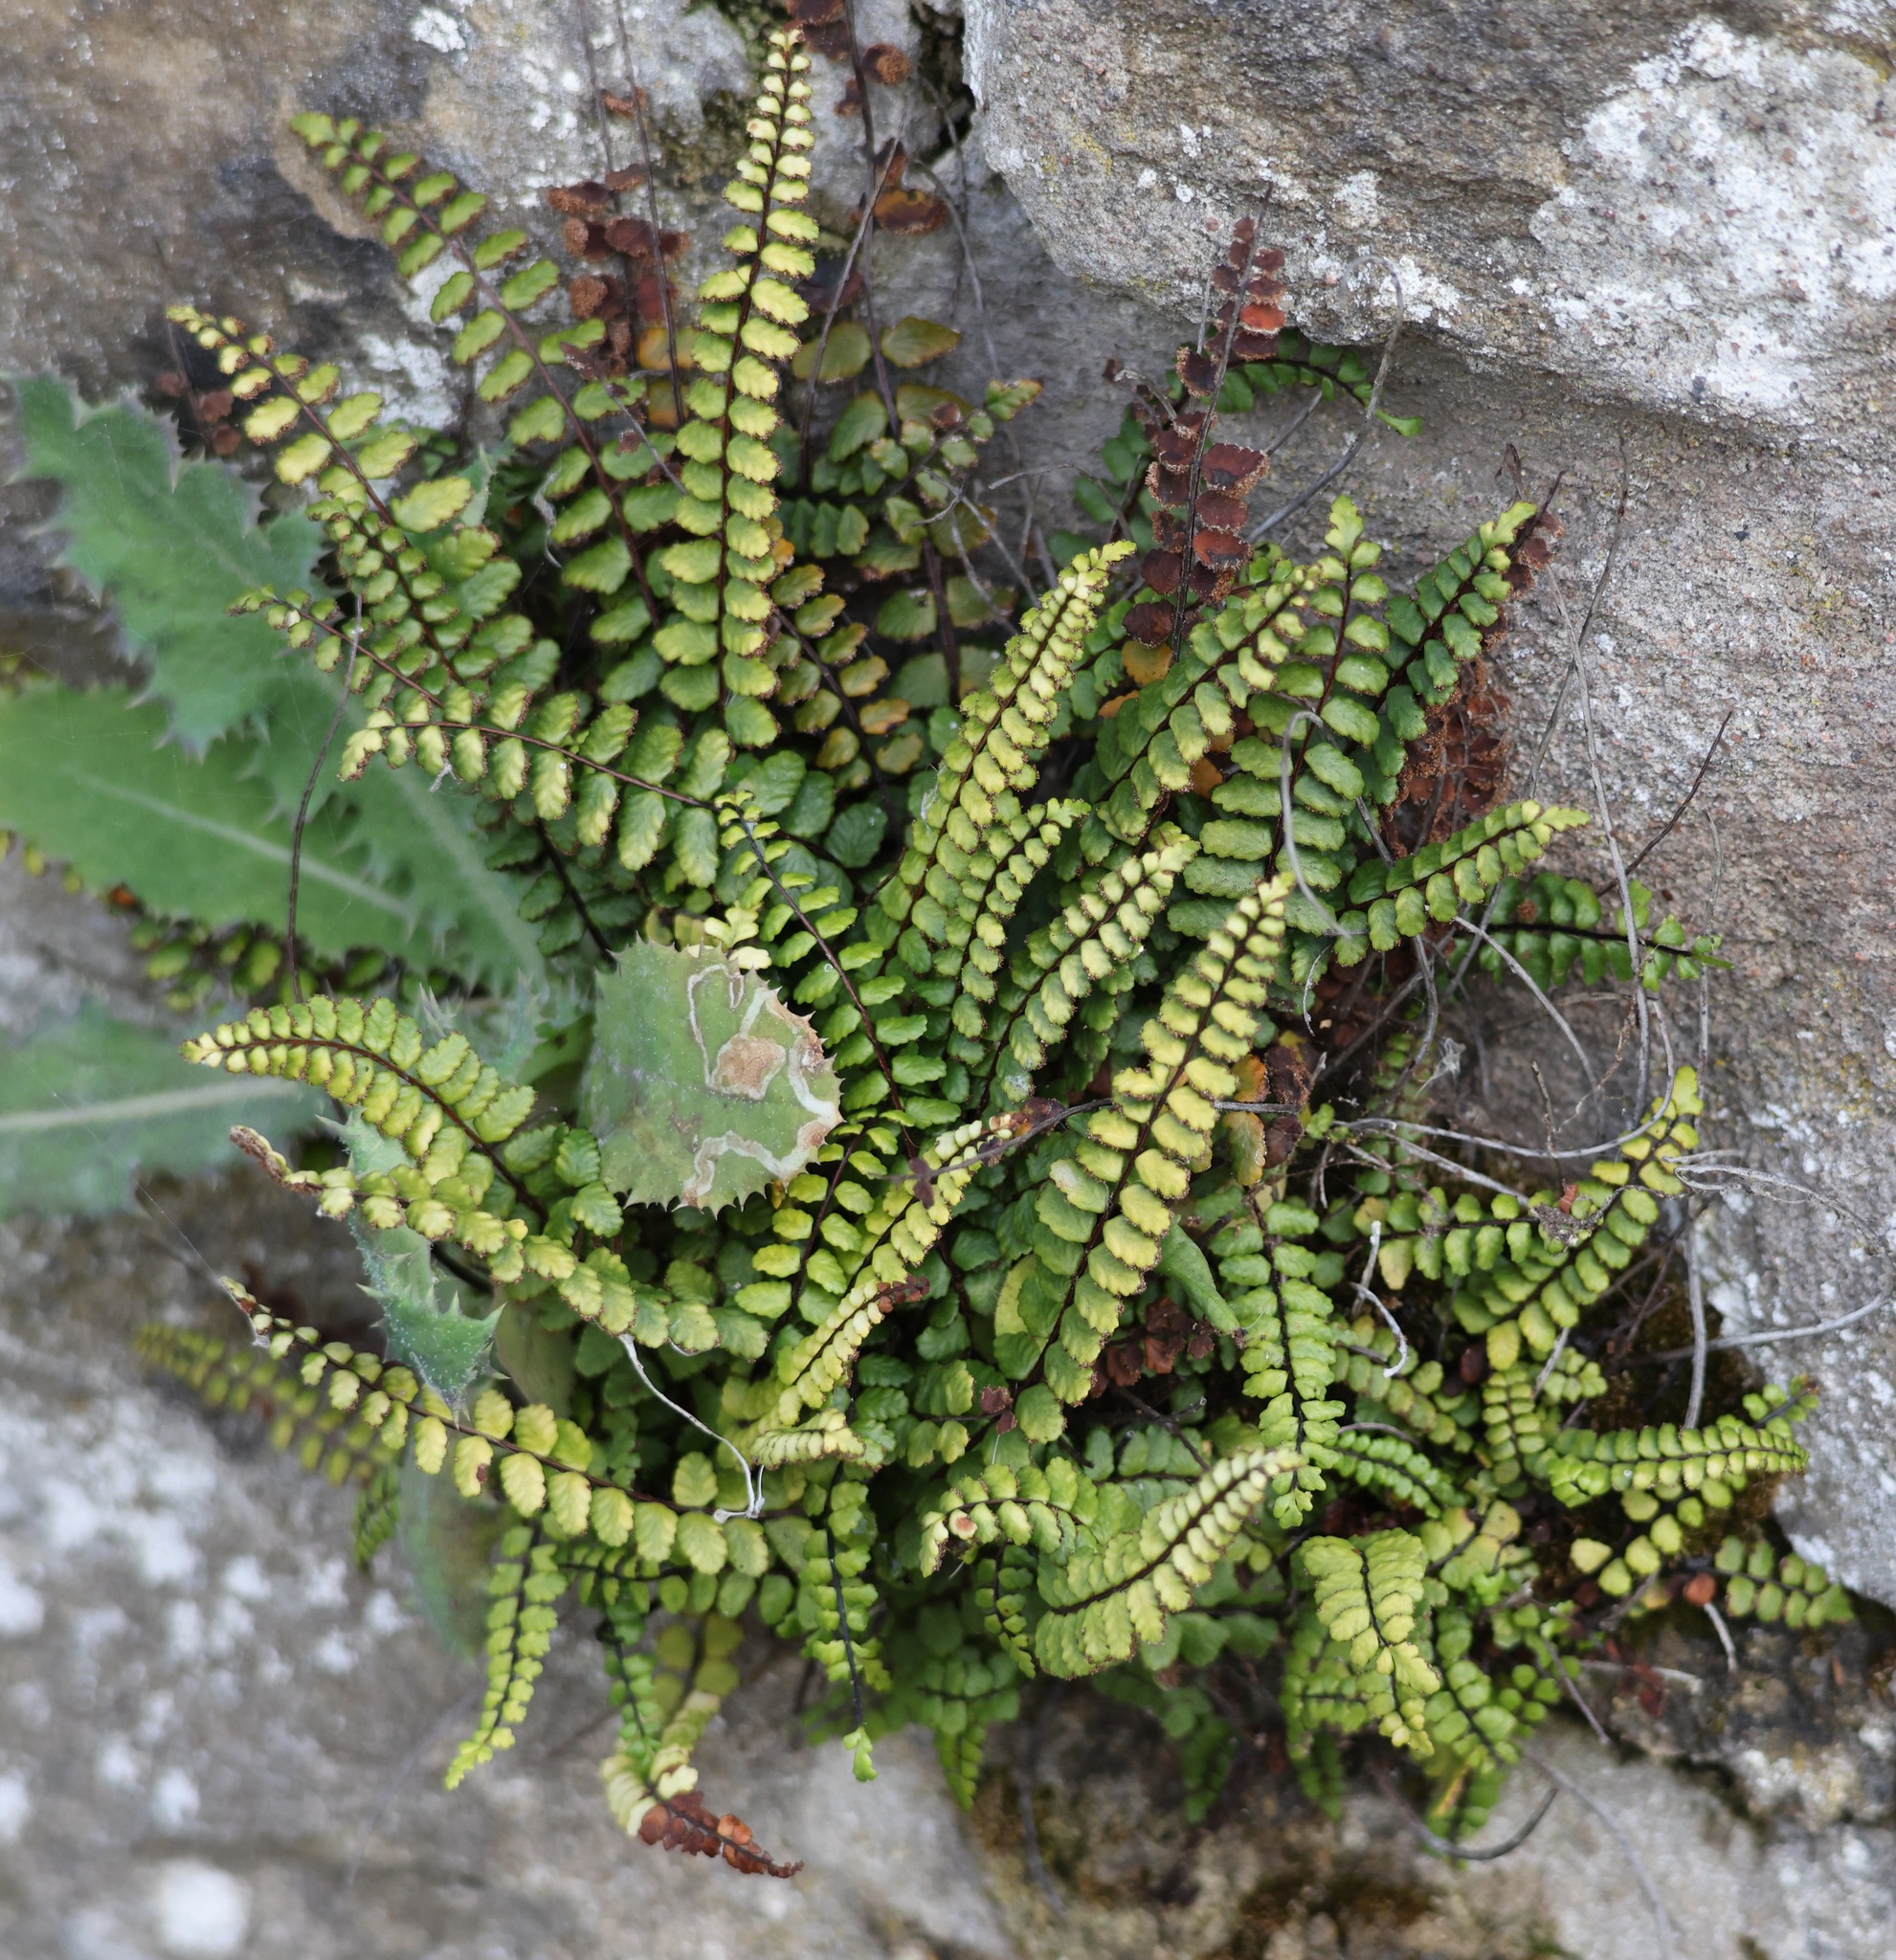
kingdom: Plantae
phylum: Tracheophyta
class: Polypodiopsida
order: Polypodiales
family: Aspleniaceae
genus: Asplenium
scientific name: Asplenium trichomanes
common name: Maidenhair spleenwort
